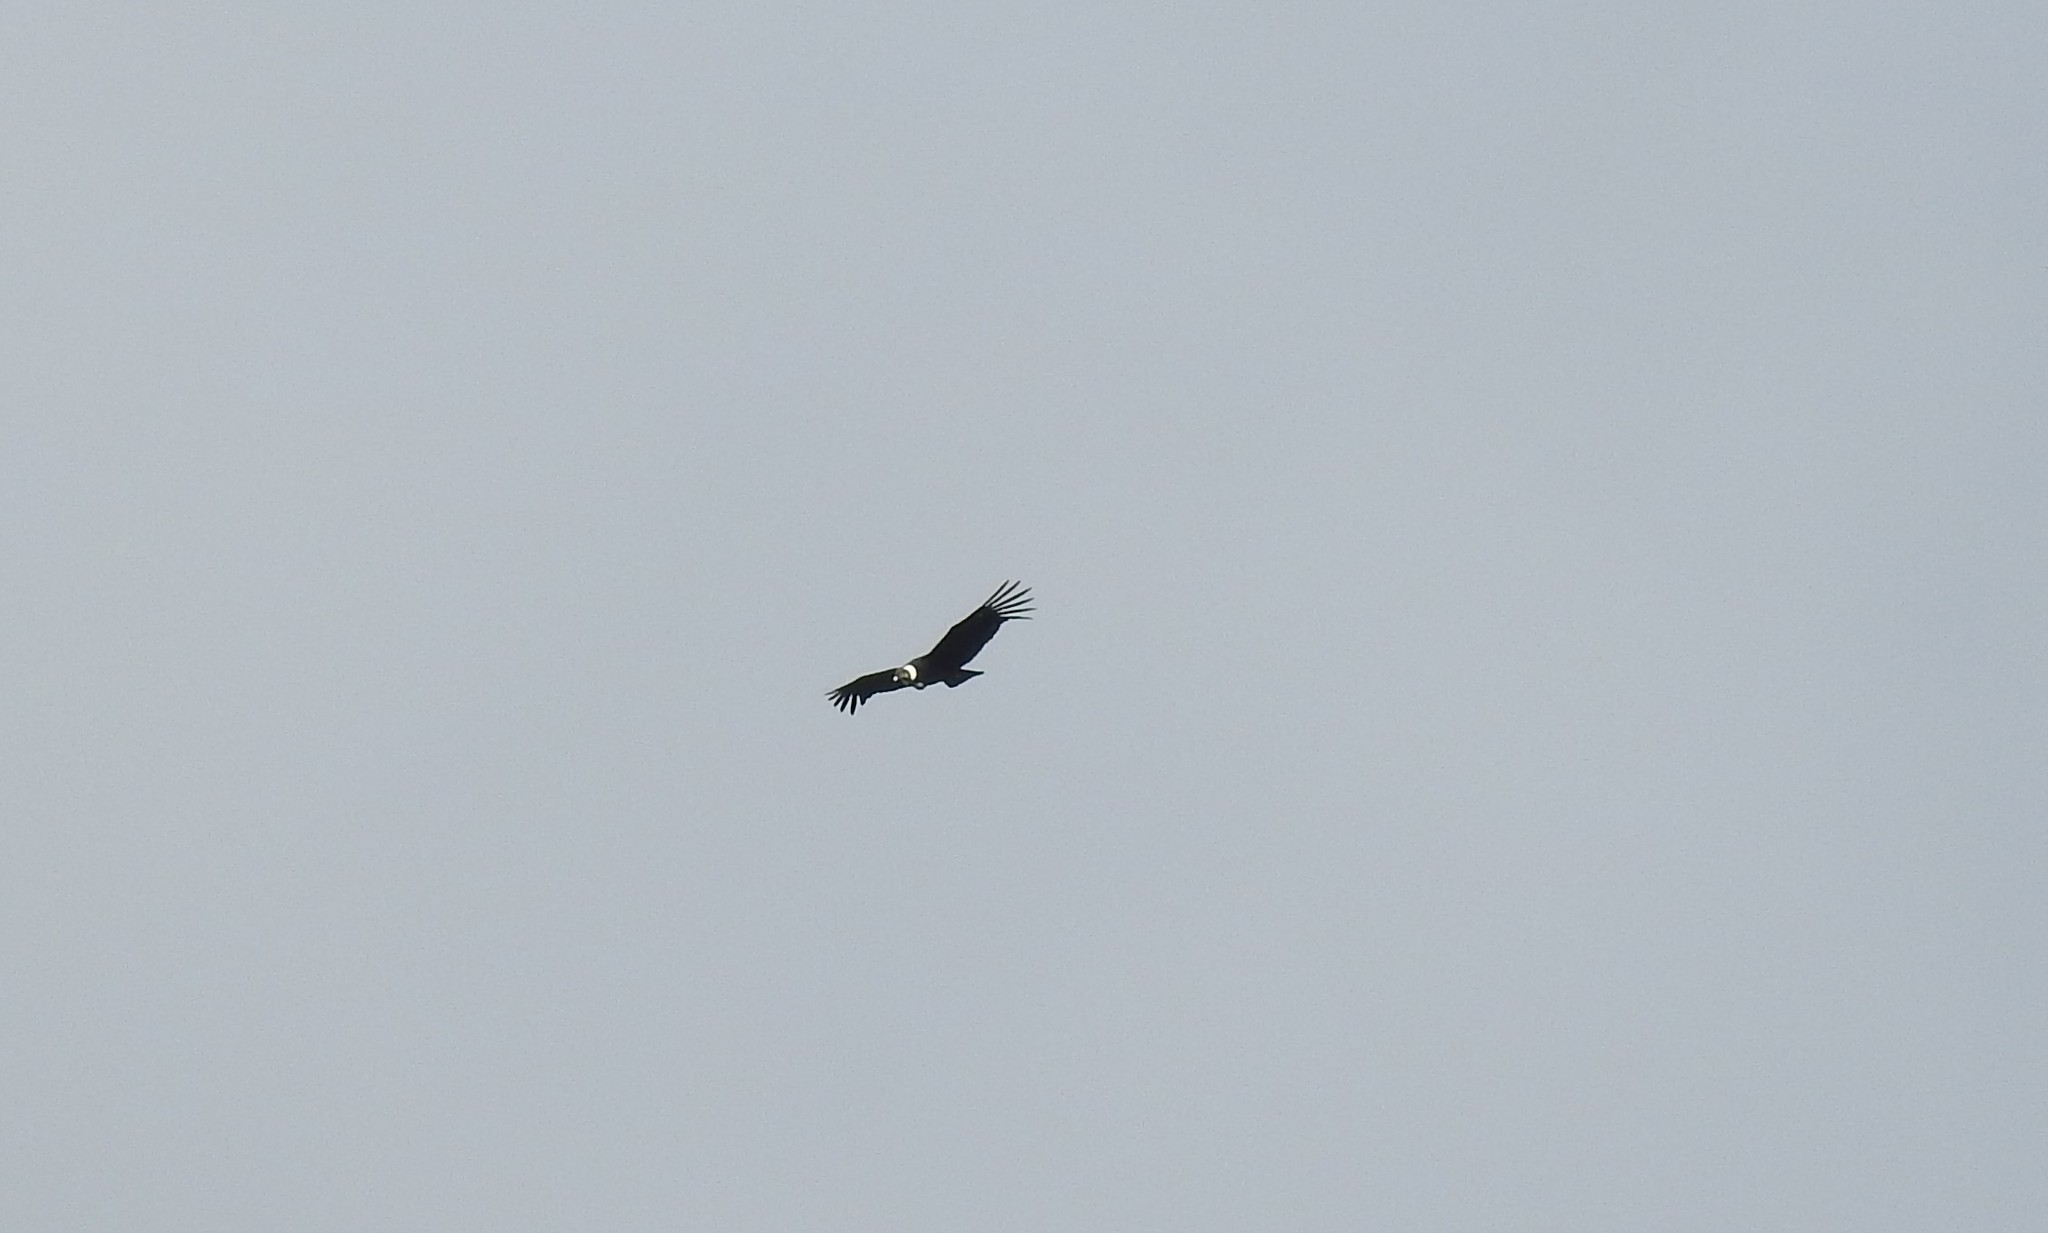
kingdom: Animalia
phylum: Chordata
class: Aves
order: Accipitriformes
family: Cathartidae
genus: Vultur
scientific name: Vultur gryphus
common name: Andean condor
